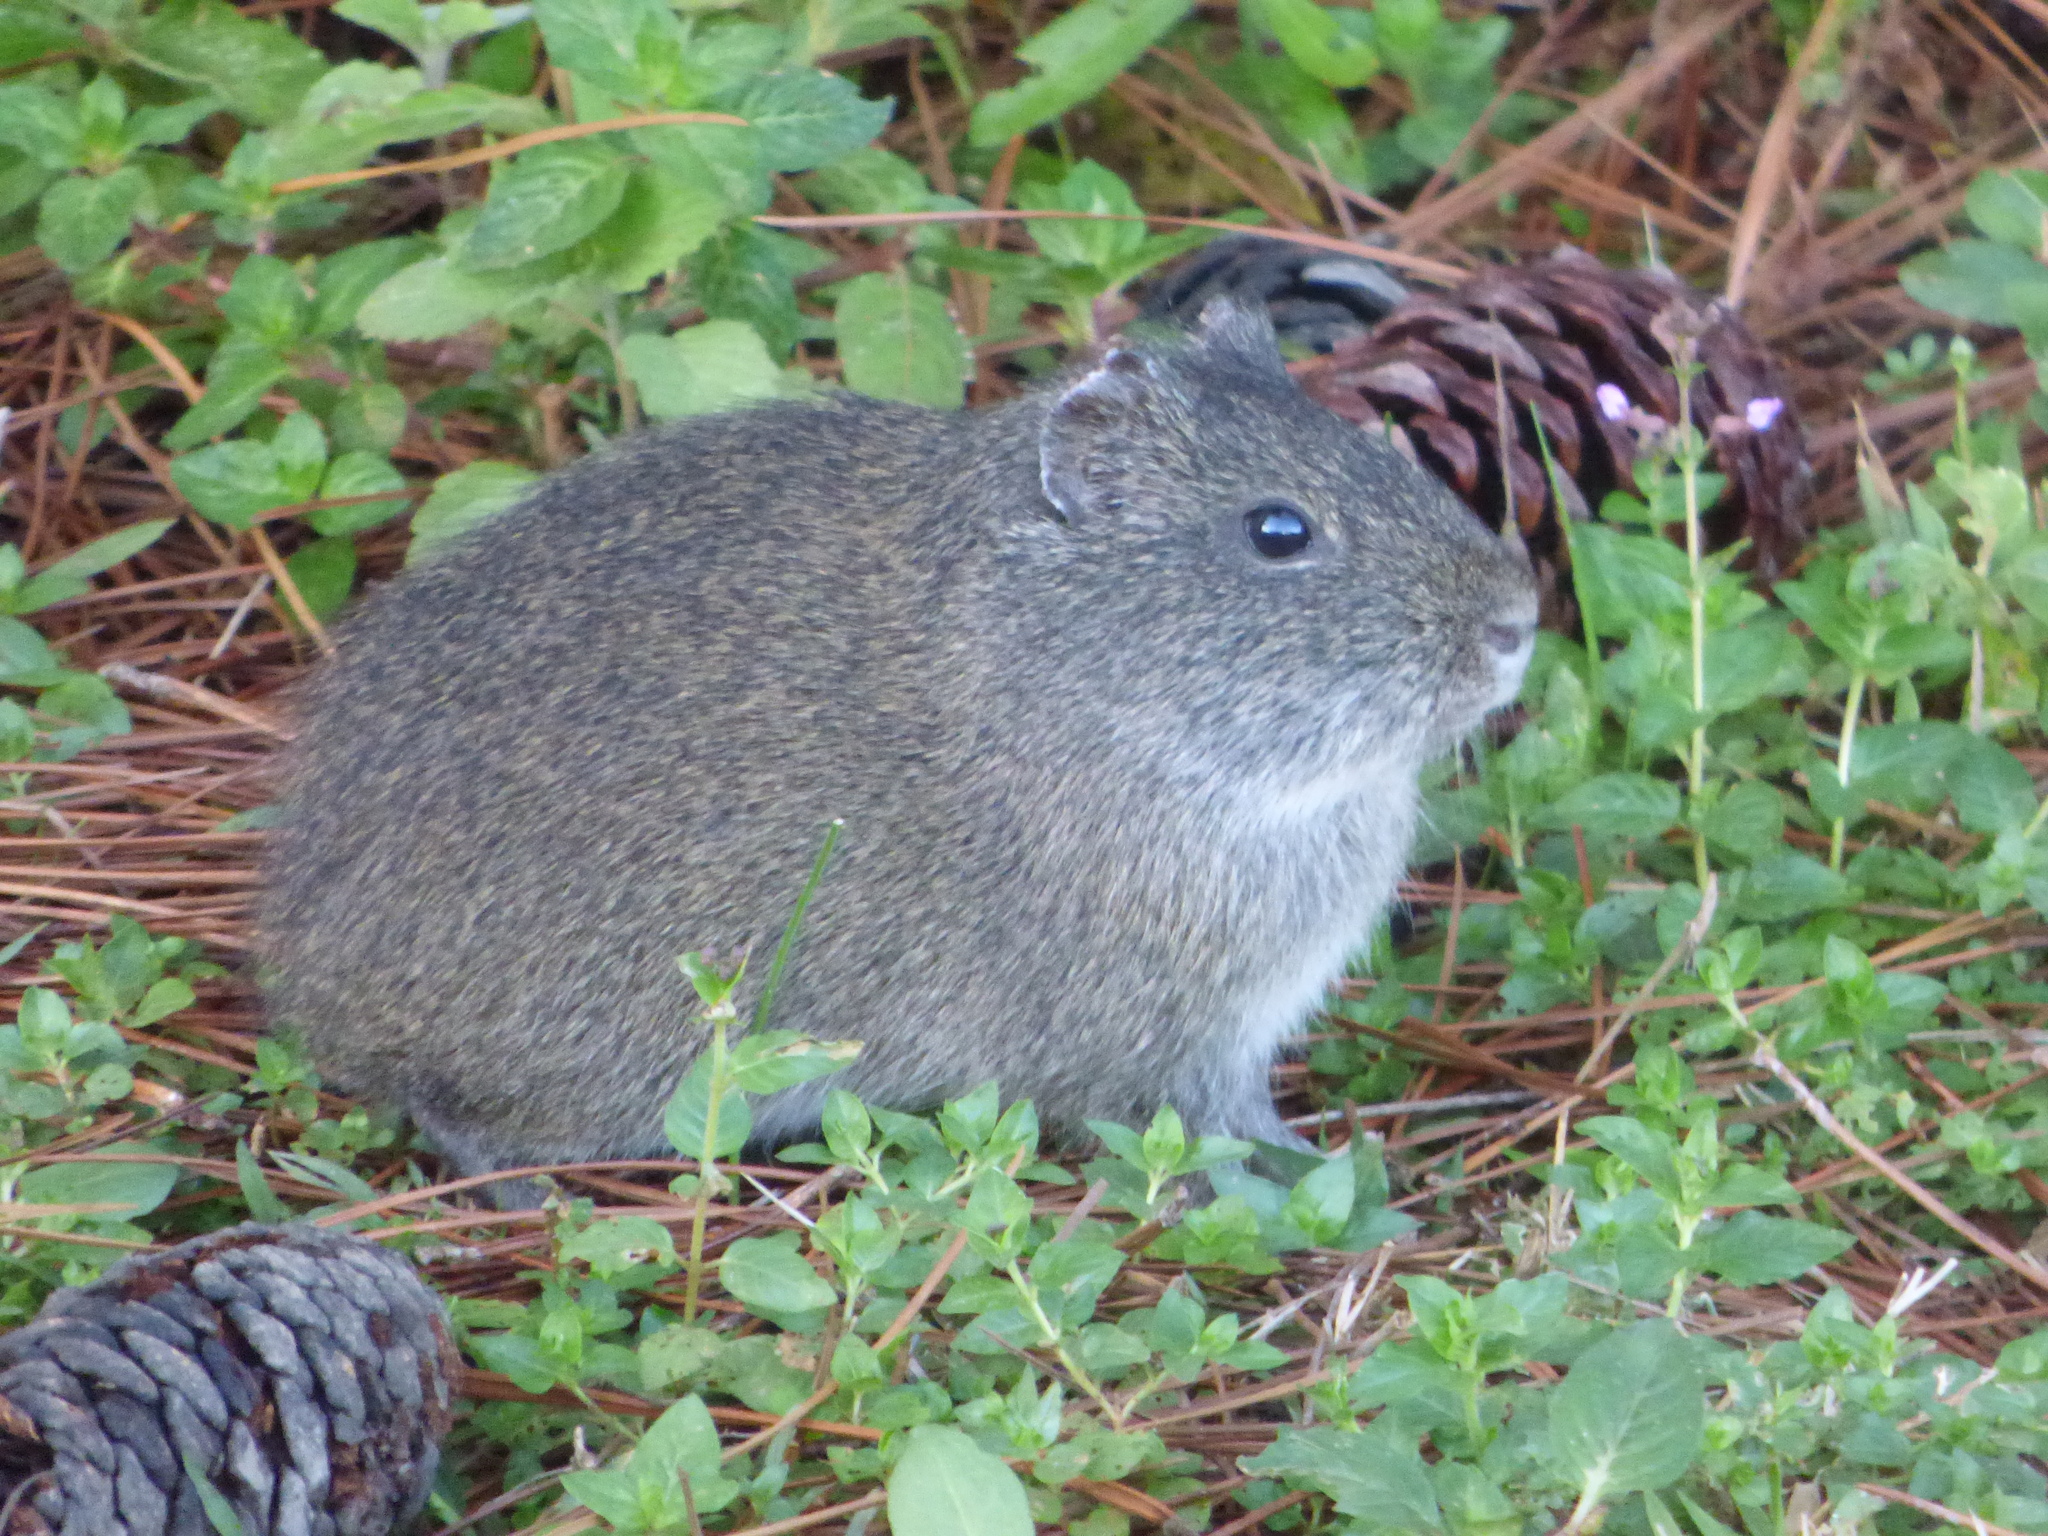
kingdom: Animalia
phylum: Chordata
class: Mammalia
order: Rodentia
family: Caviidae
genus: Cavia
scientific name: Cavia aperea
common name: Brazilian guinea pig
